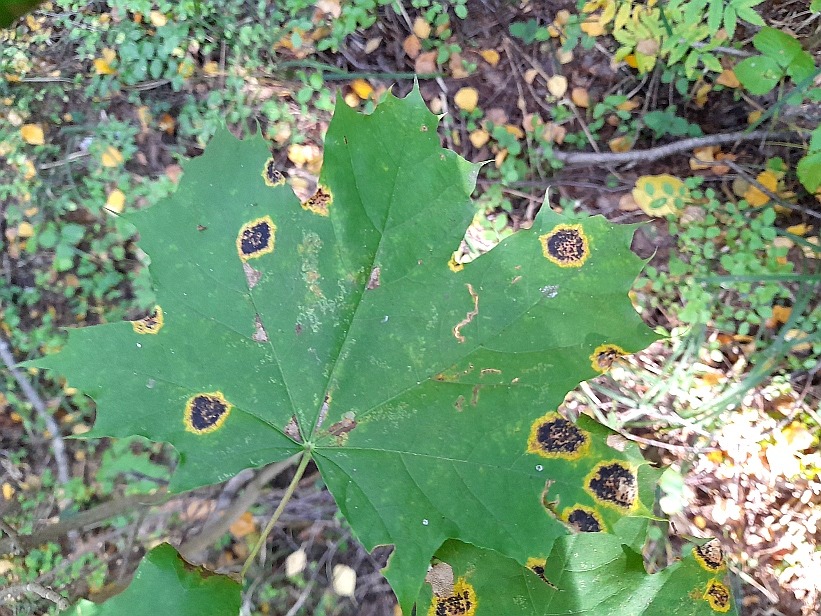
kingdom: Plantae
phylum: Tracheophyta
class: Magnoliopsida
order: Sapindales
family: Sapindaceae
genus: Acer
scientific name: Acer platanoides
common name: Norway maple
